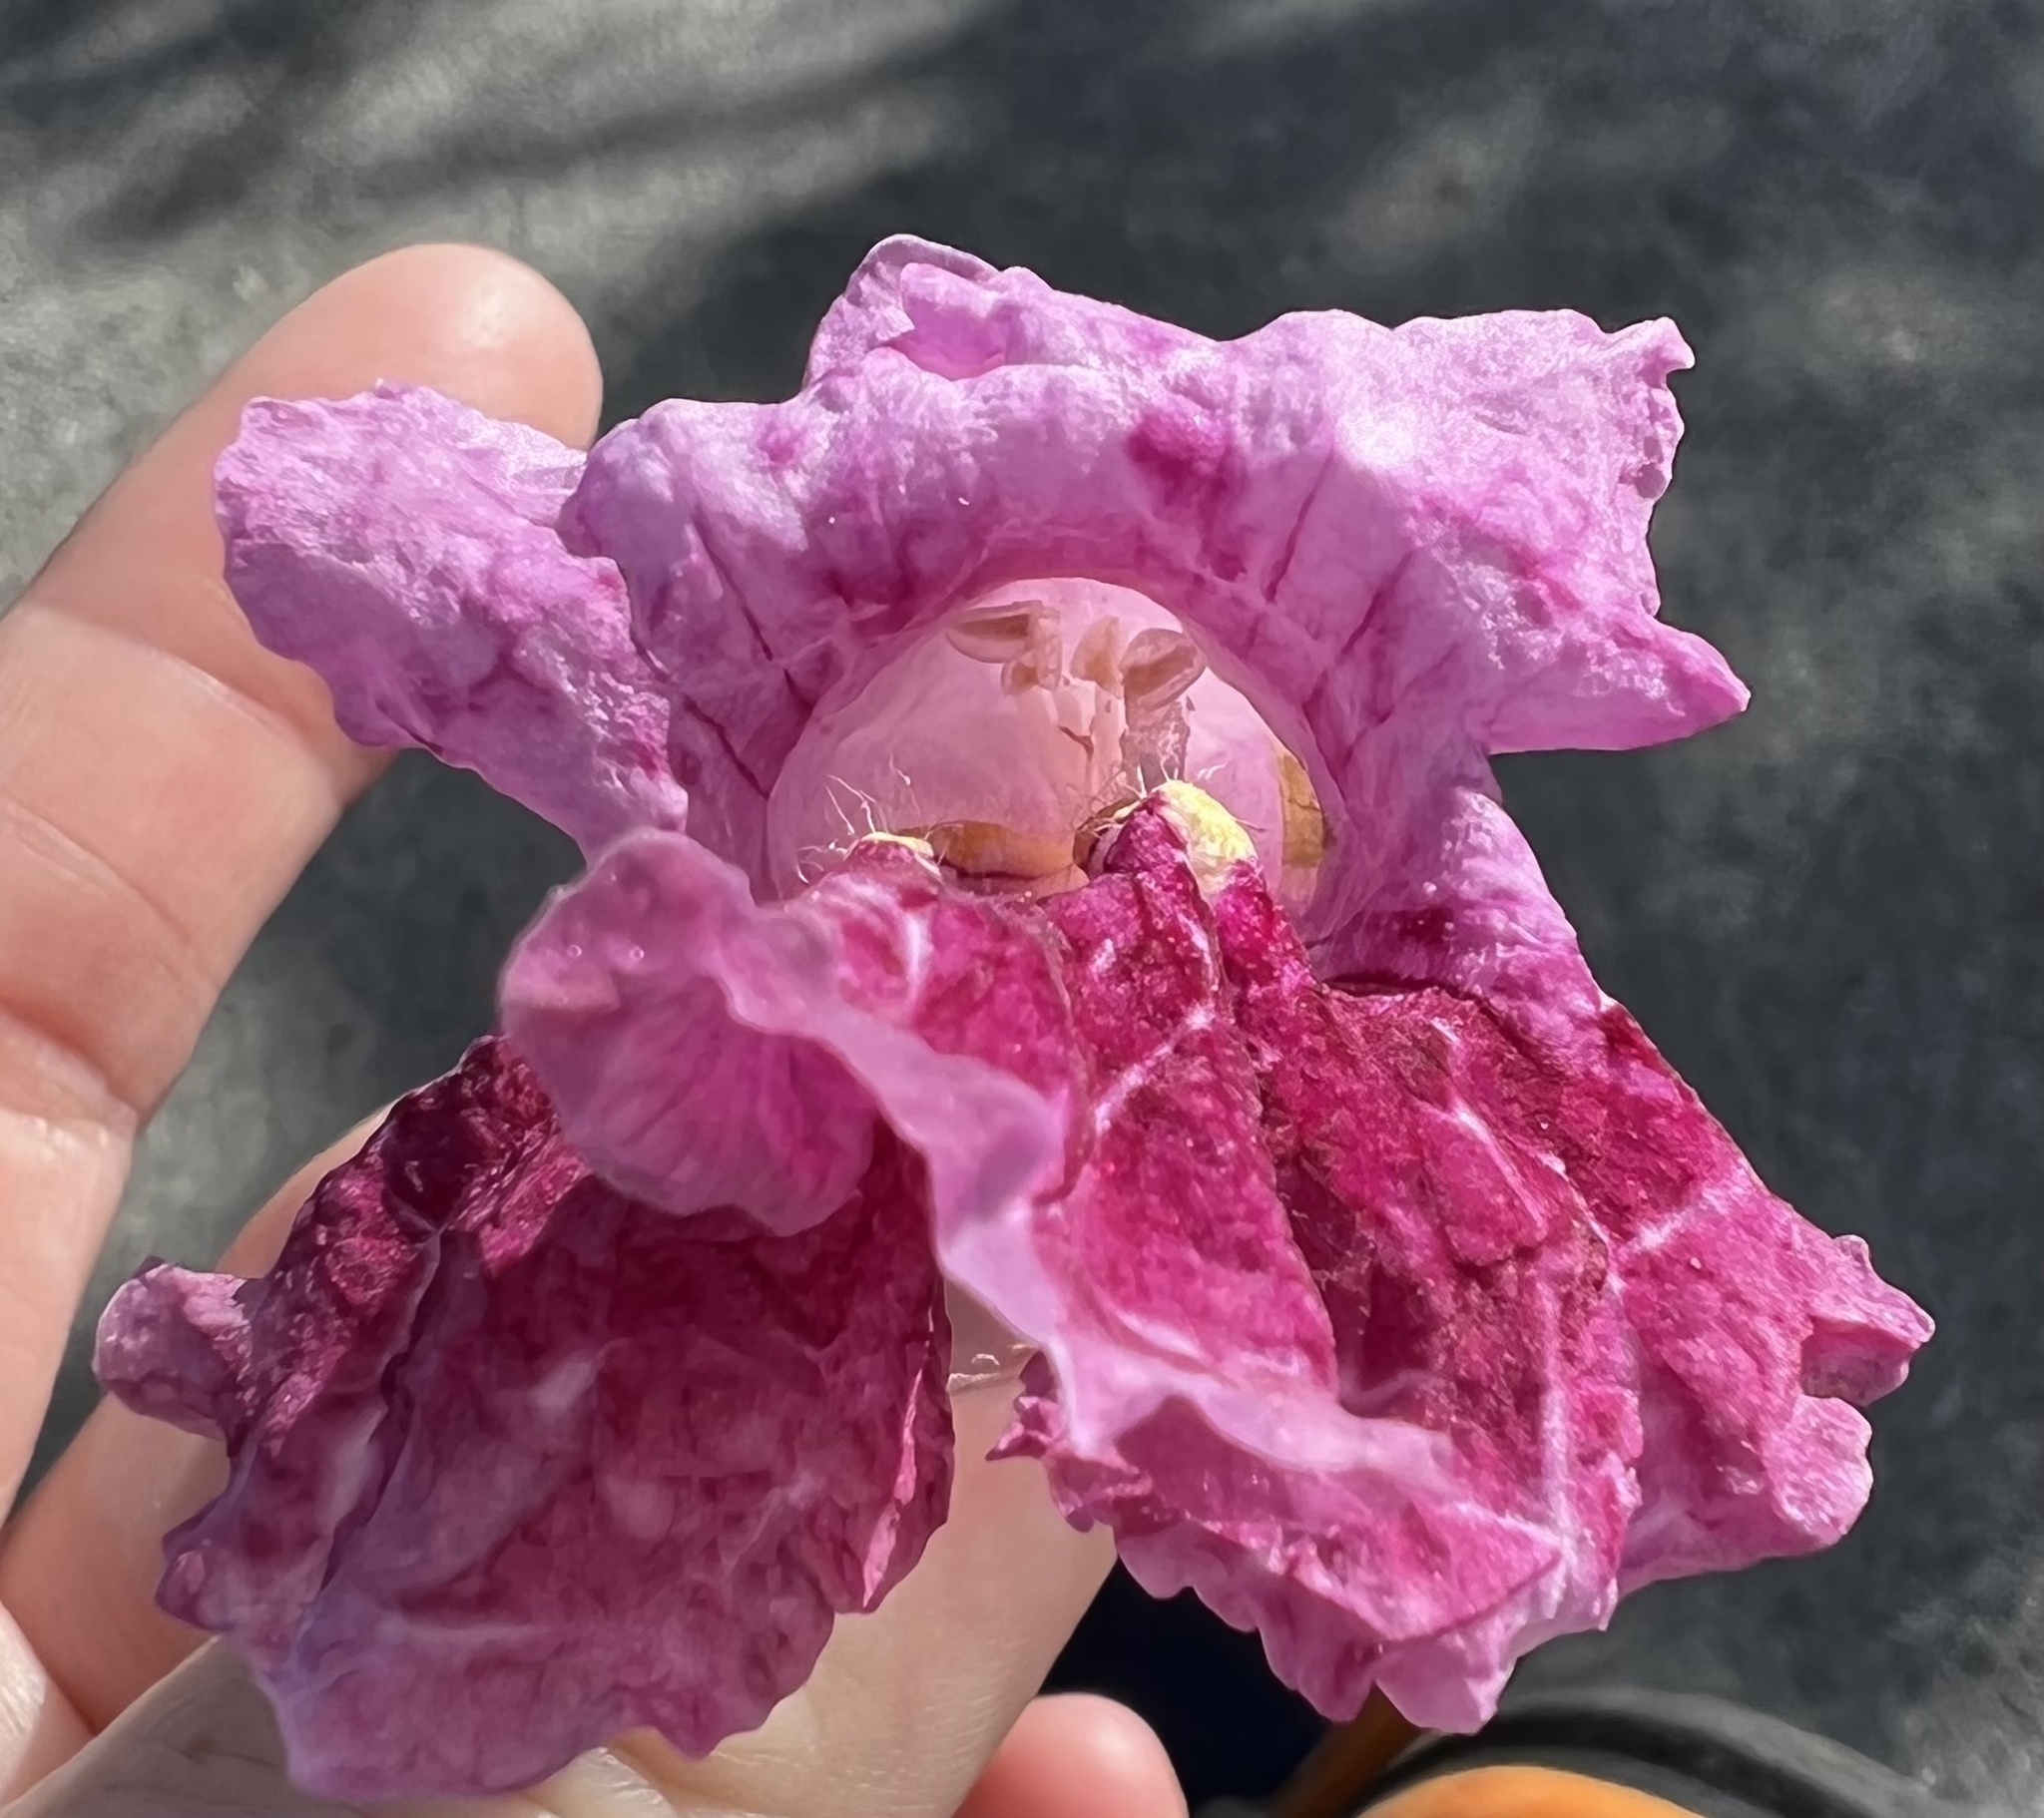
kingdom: Plantae
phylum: Tracheophyta
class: Magnoliopsida
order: Lamiales
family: Bignoniaceae
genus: Chilopsis
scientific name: Chilopsis linearis
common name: Desert-willow
